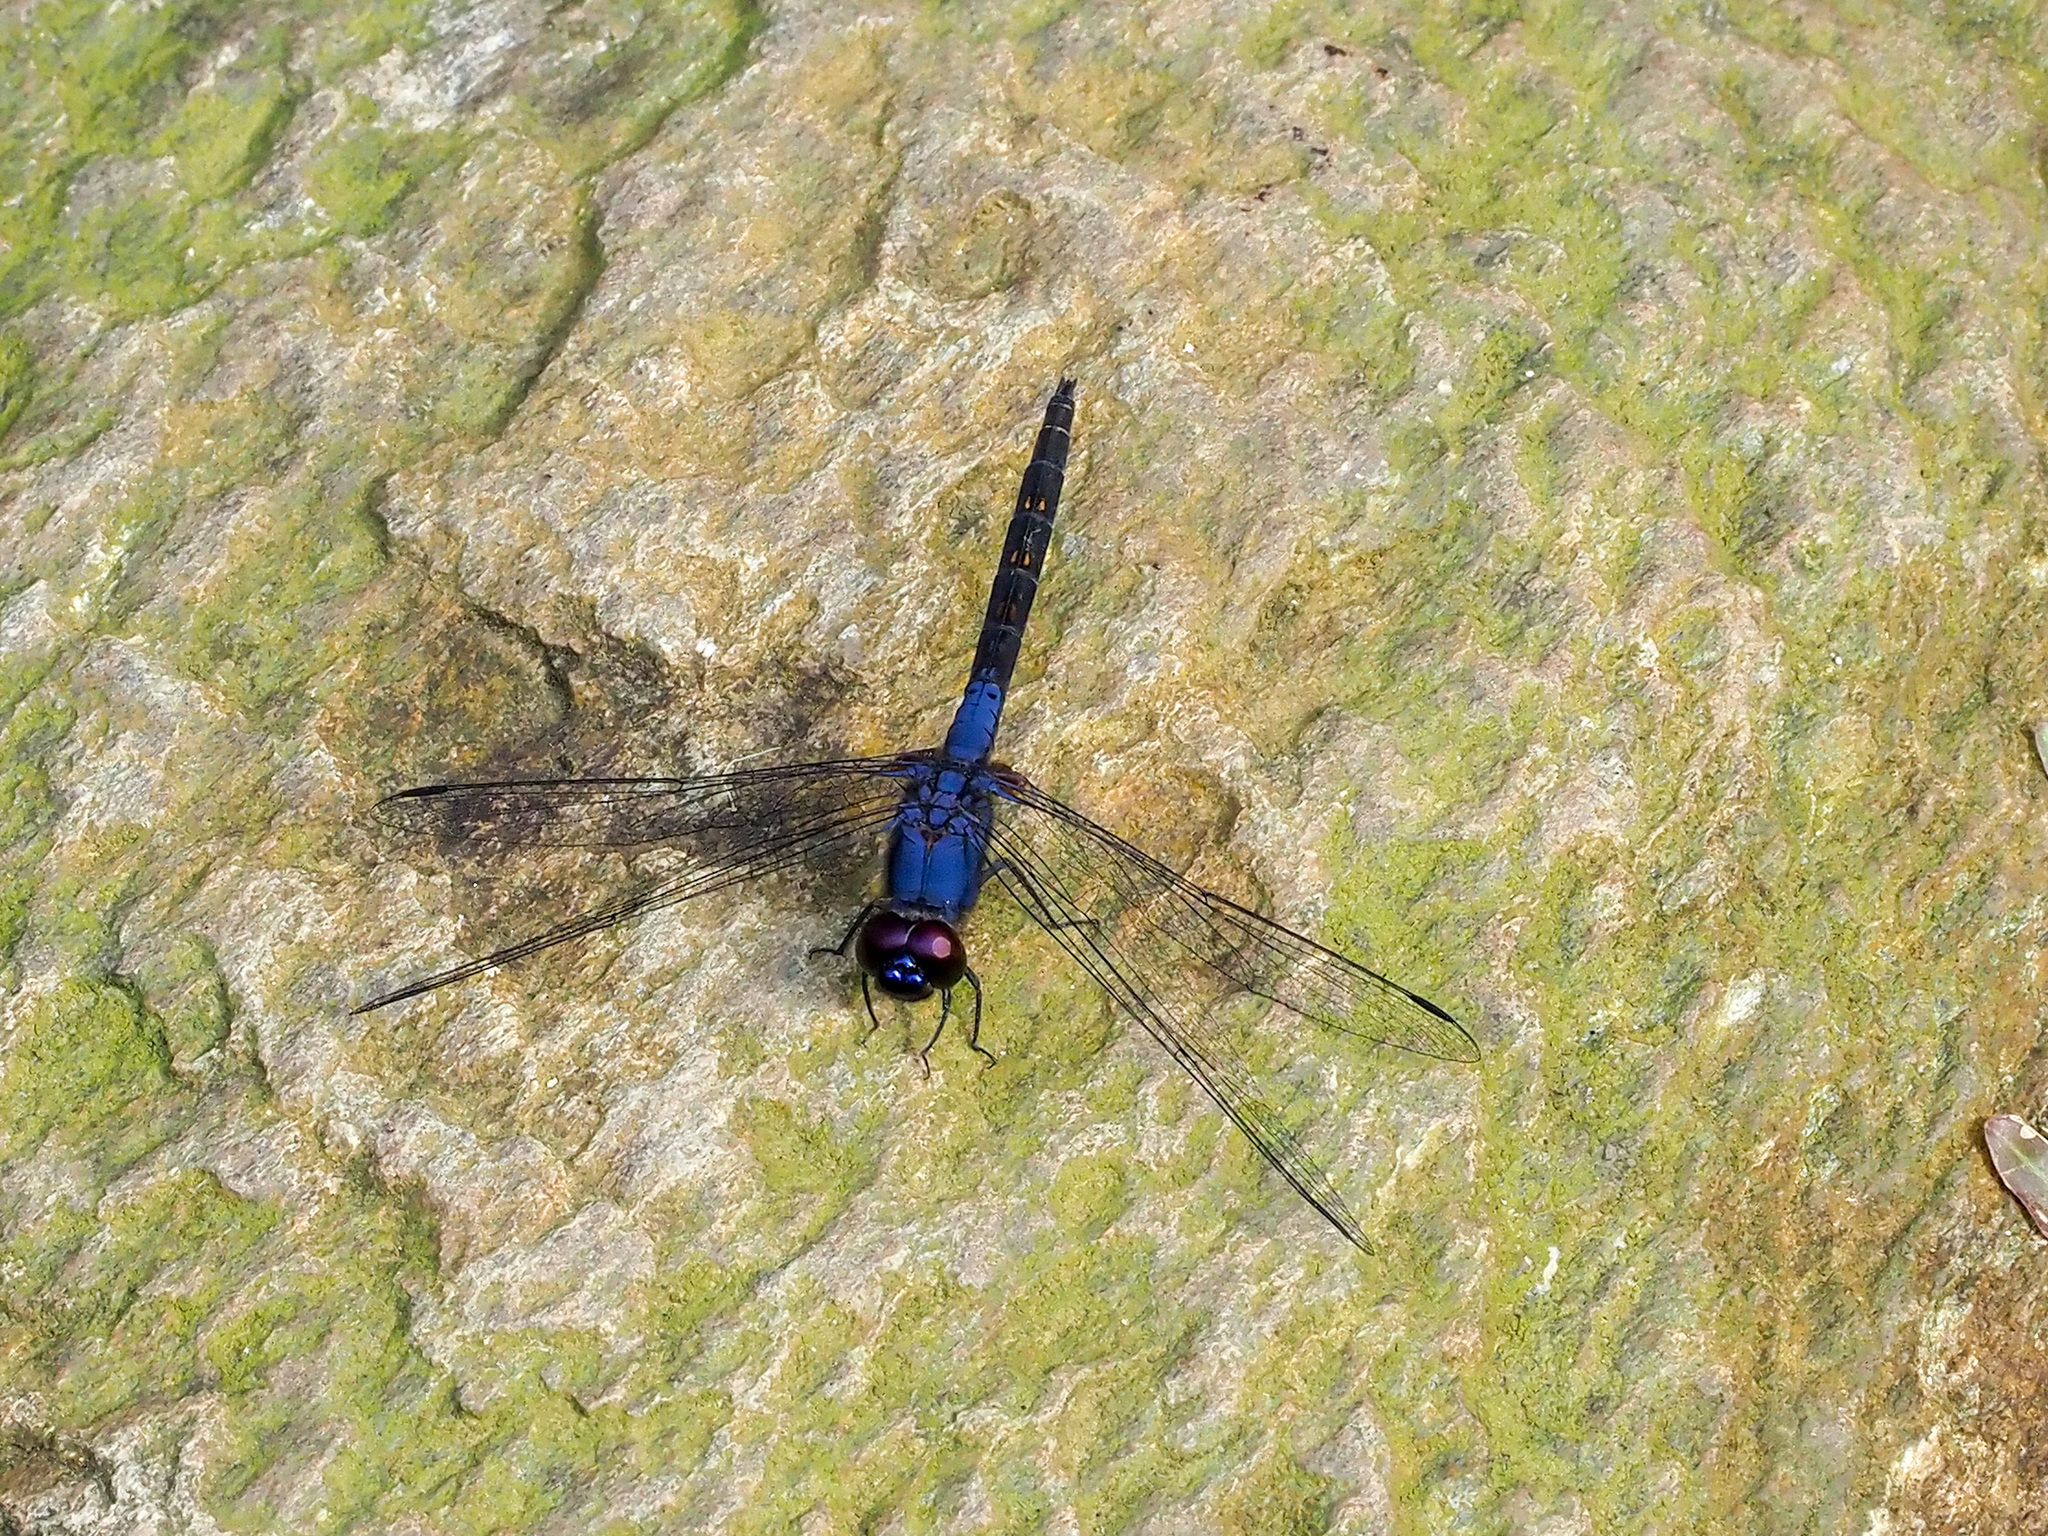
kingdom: Animalia
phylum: Arthropoda
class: Insecta
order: Odonata
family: Libellulidae
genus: Trithemis
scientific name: Trithemis festiva
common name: Indigo dropwing
